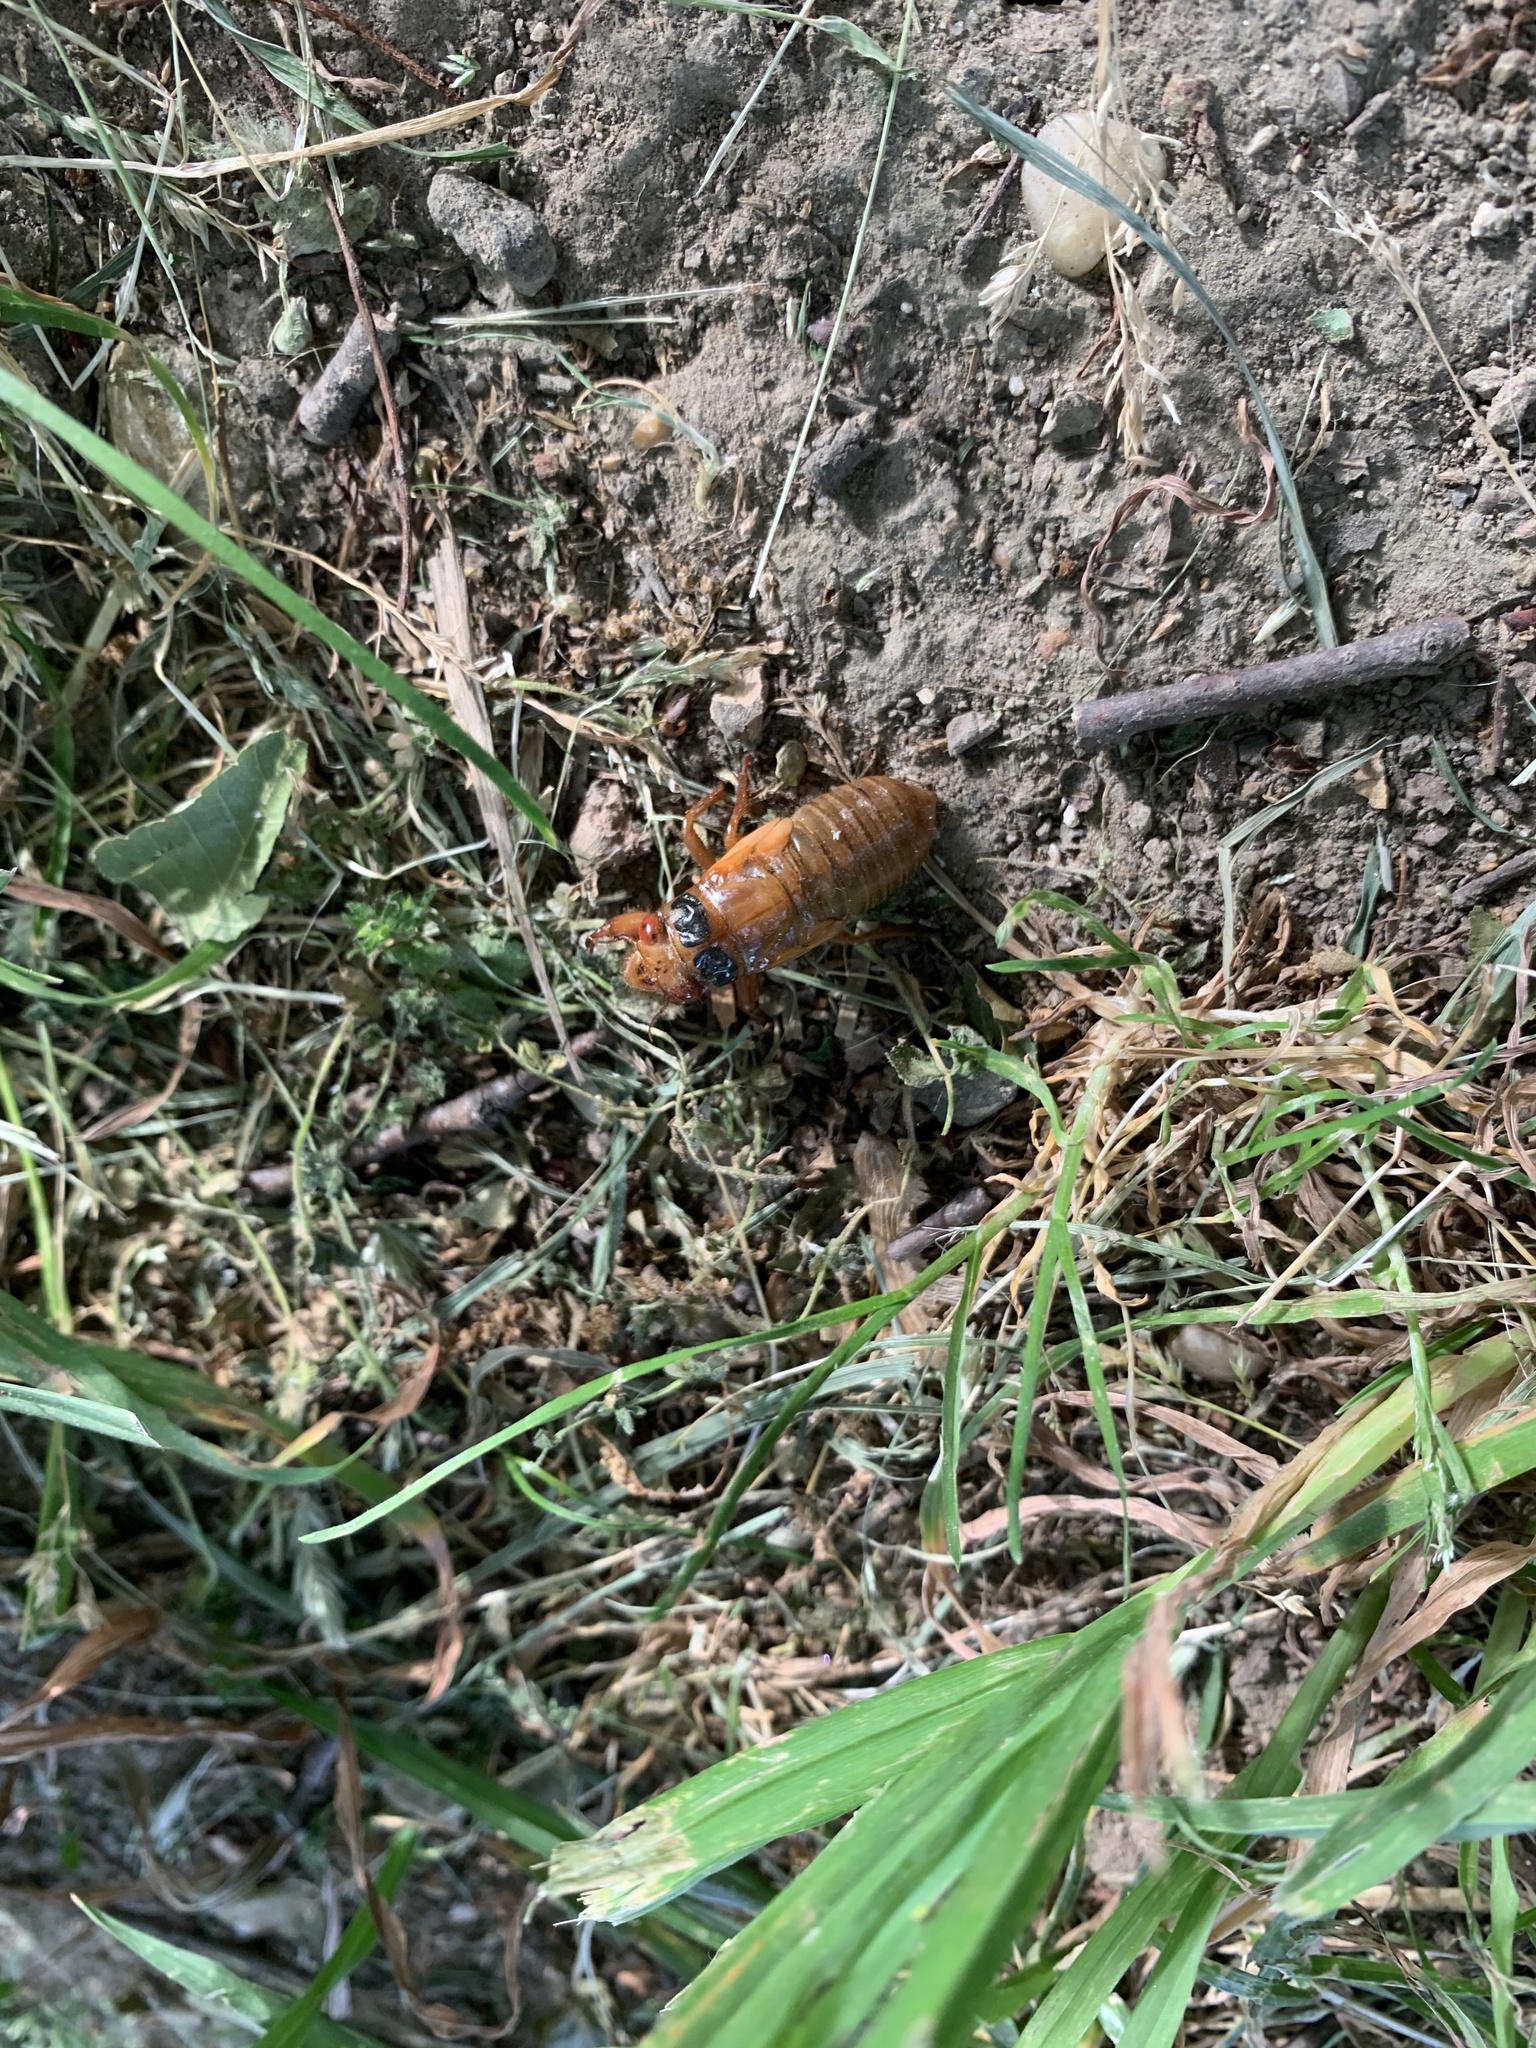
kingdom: Animalia
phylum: Arthropoda
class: Insecta
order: Hemiptera
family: Cicadidae
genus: Magicicada
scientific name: Magicicada
